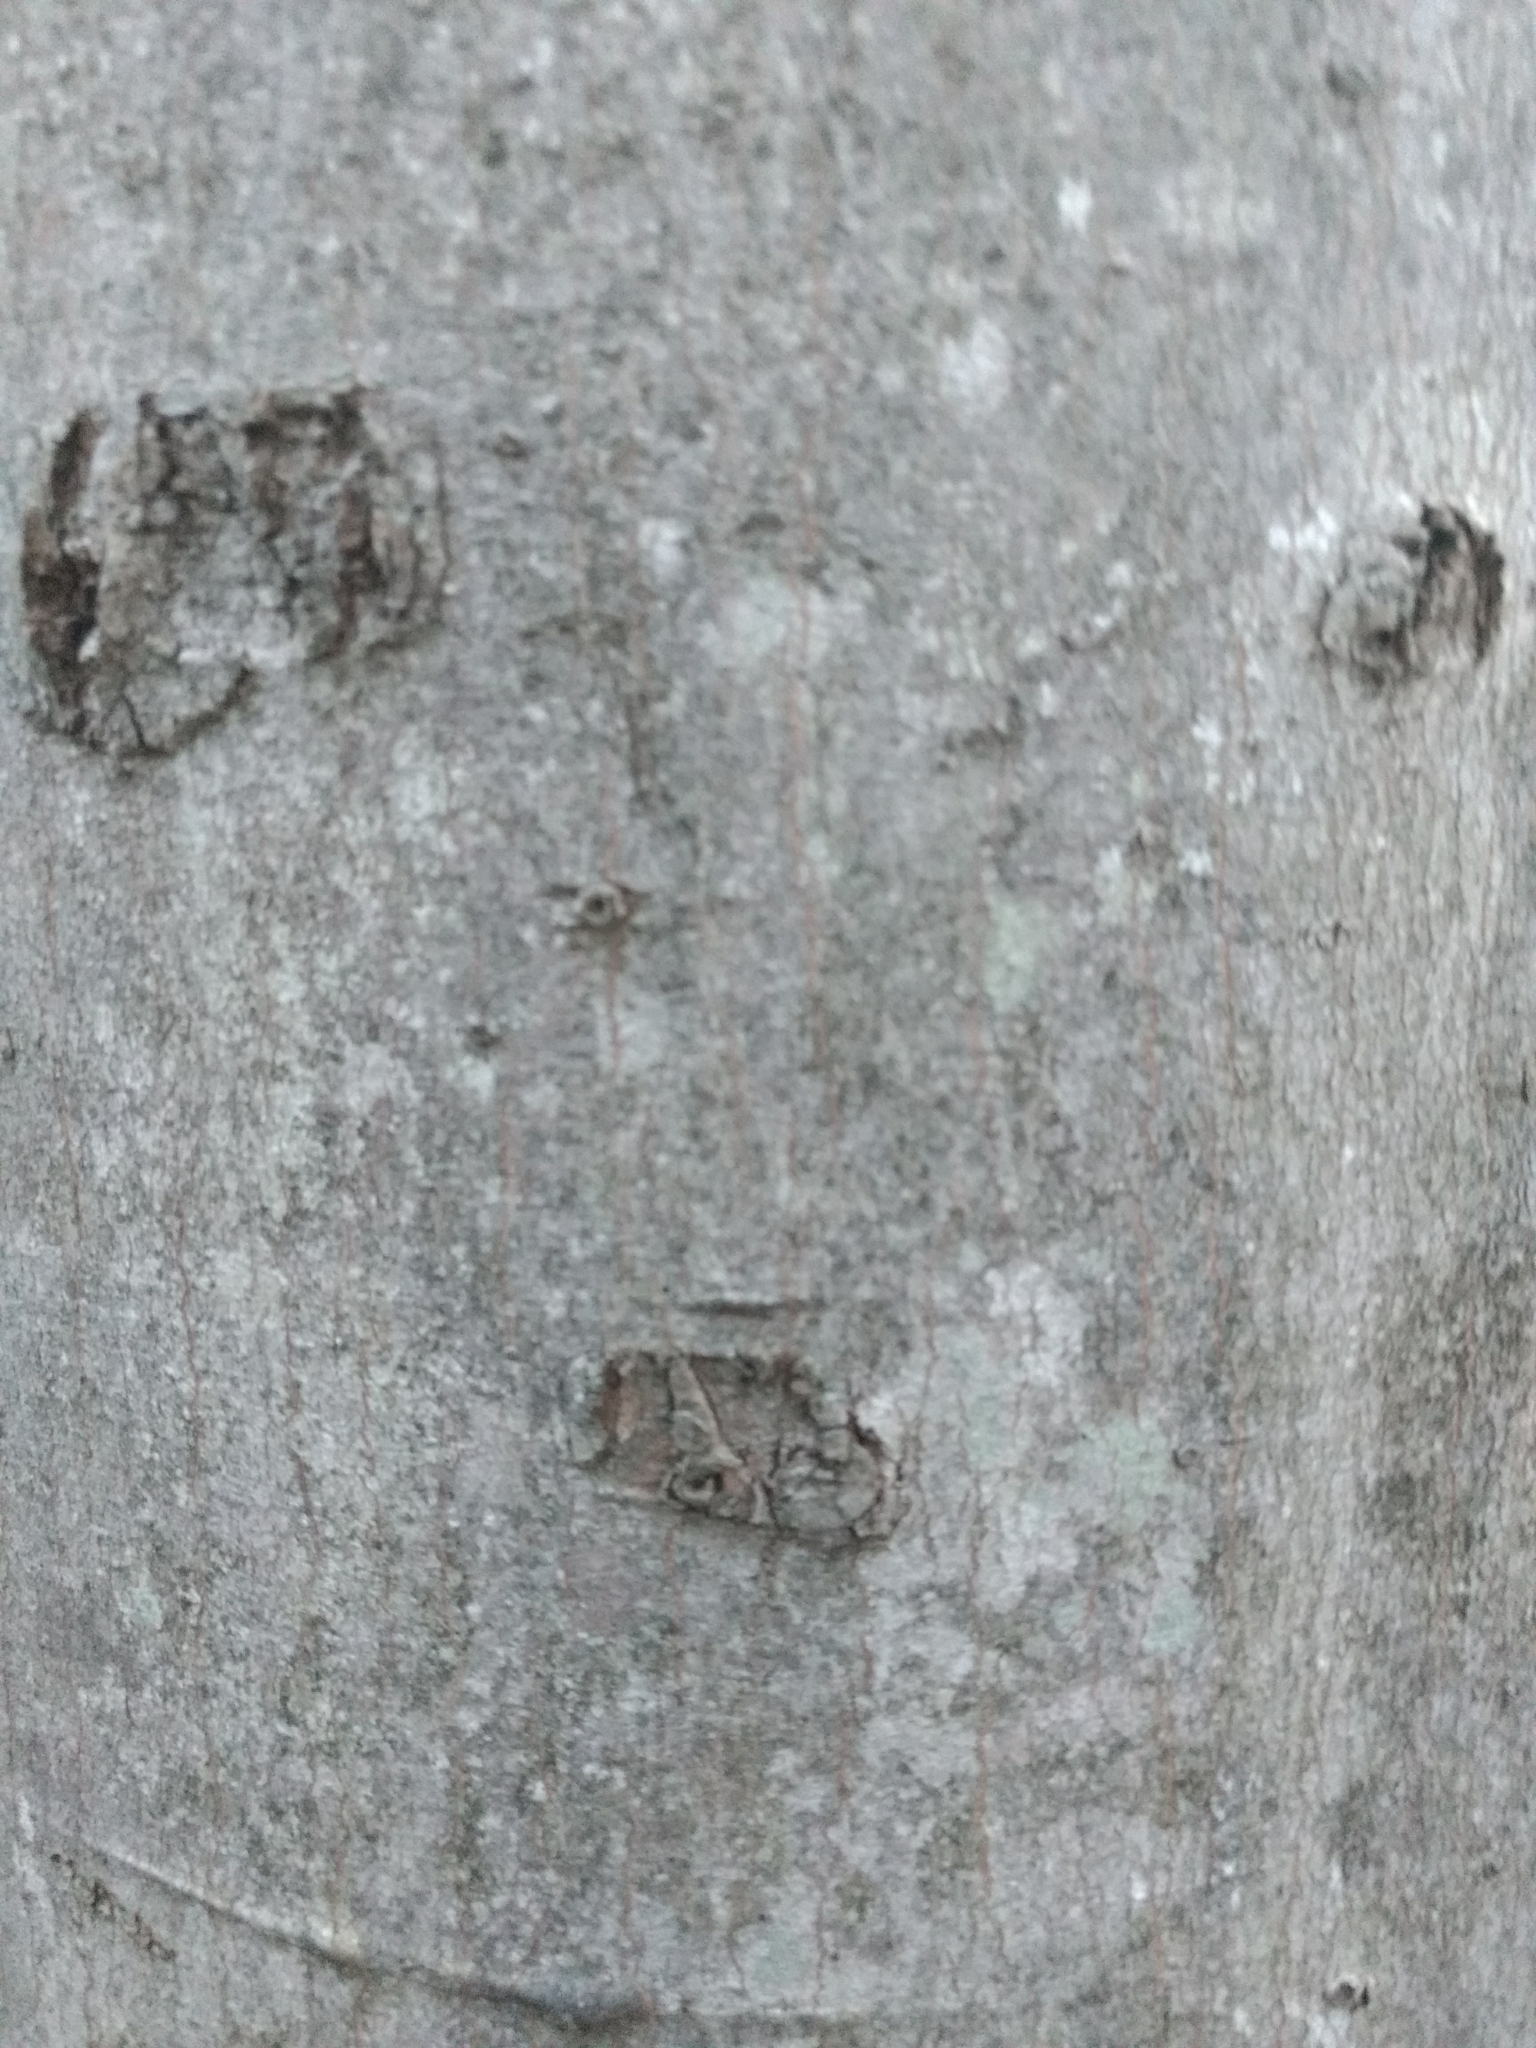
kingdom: Plantae
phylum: Tracheophyta
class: Magnoliopsida
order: Fagales
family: Fagaceae
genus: Fagus
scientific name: Fagus grandifolia
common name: American beech
